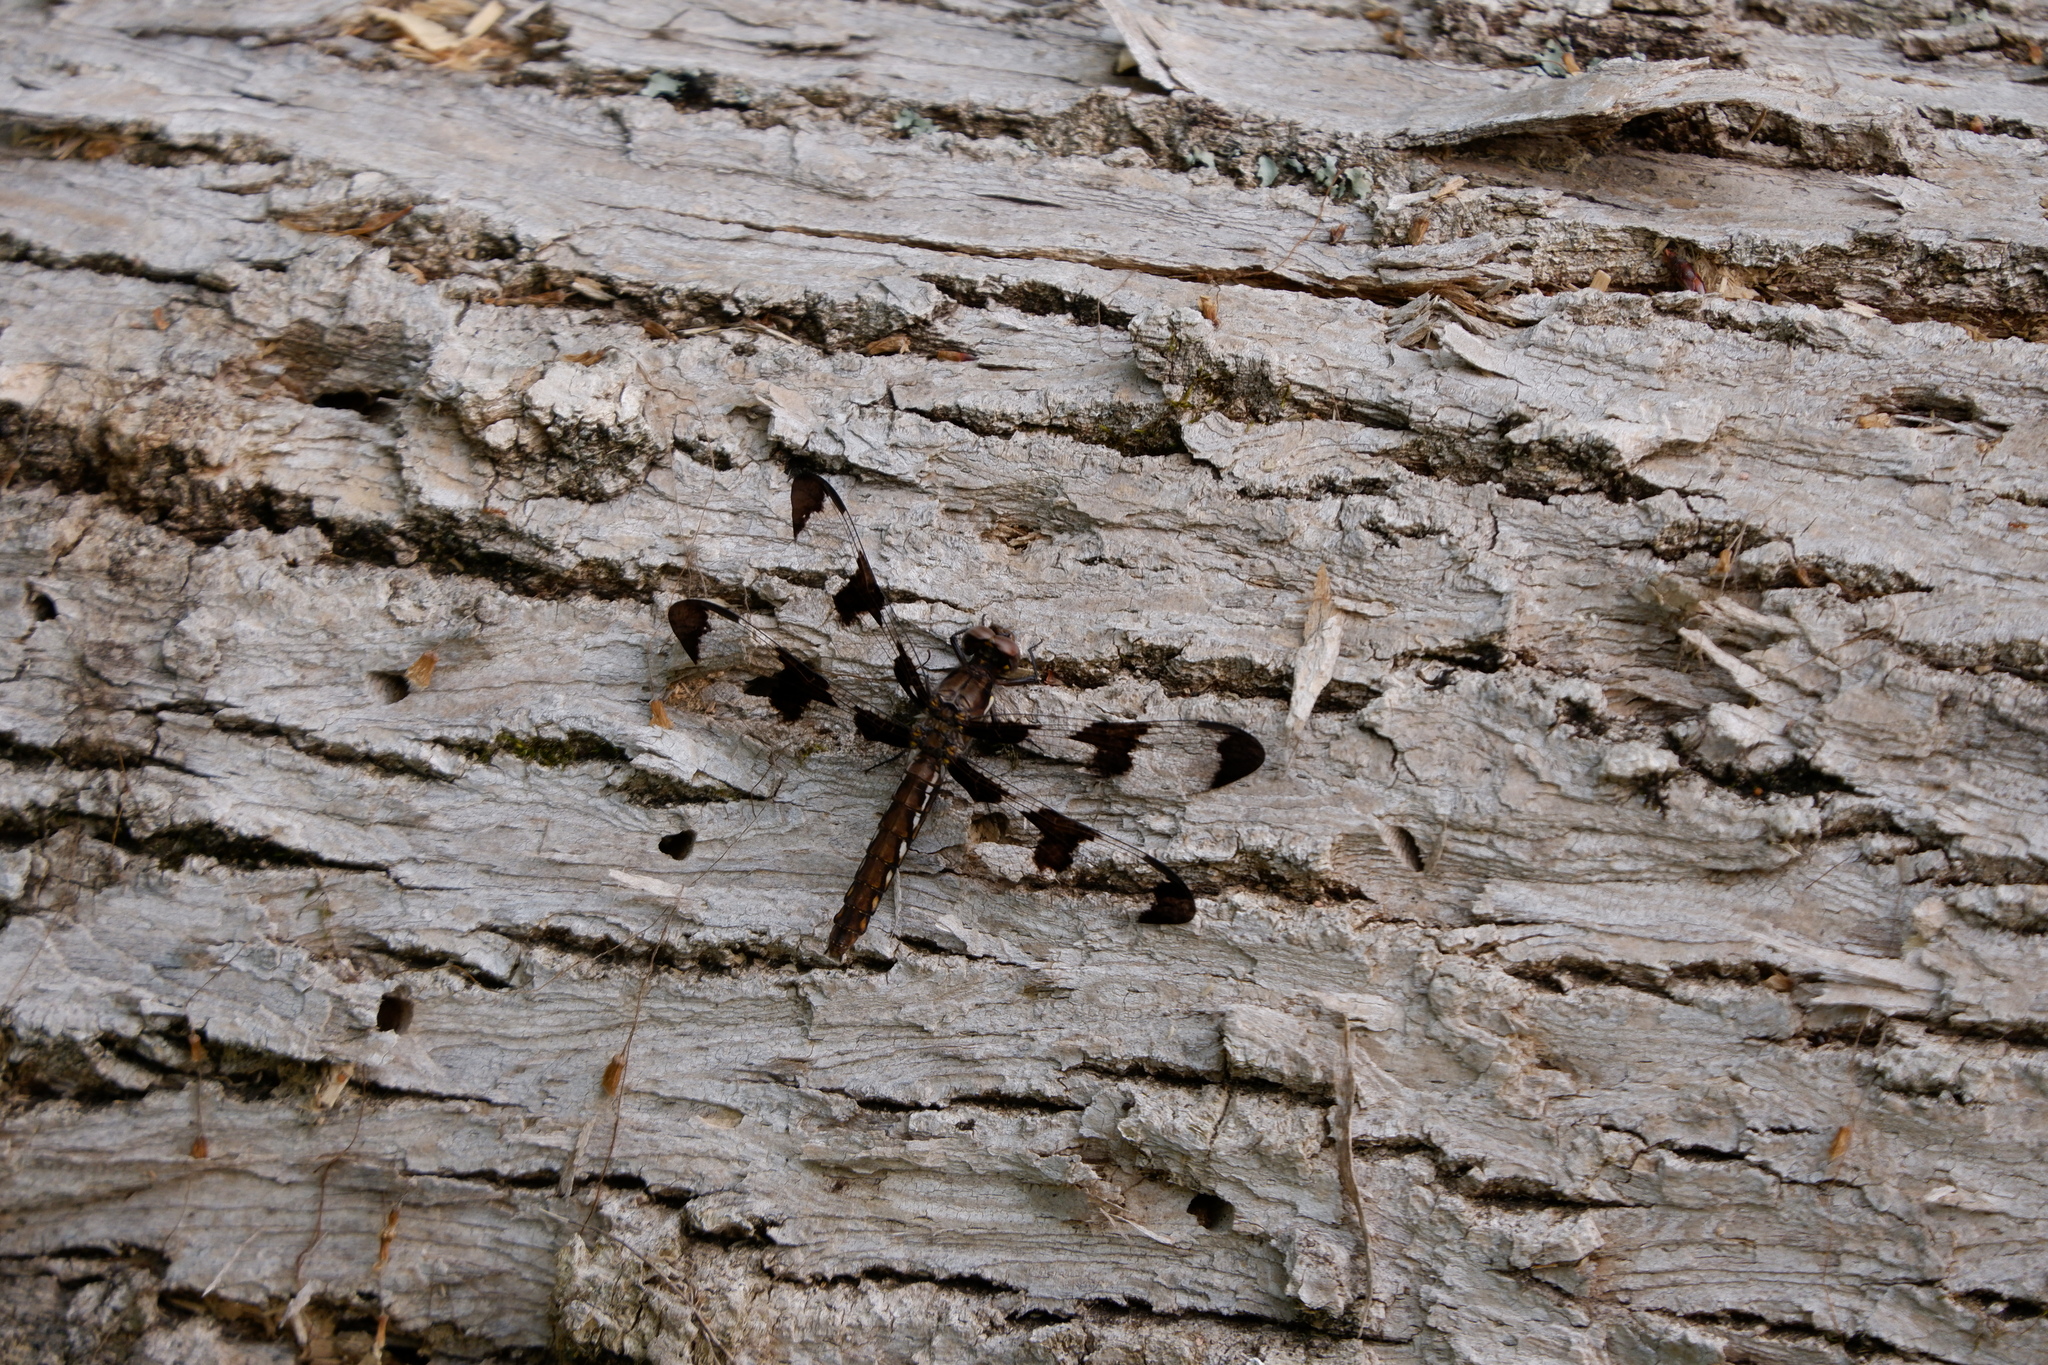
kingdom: Animalia
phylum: Arthropoda
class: Insecta
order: Odonata
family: Libellulidae
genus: Plathemis
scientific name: Plathemis lydia
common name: Common whitetail
